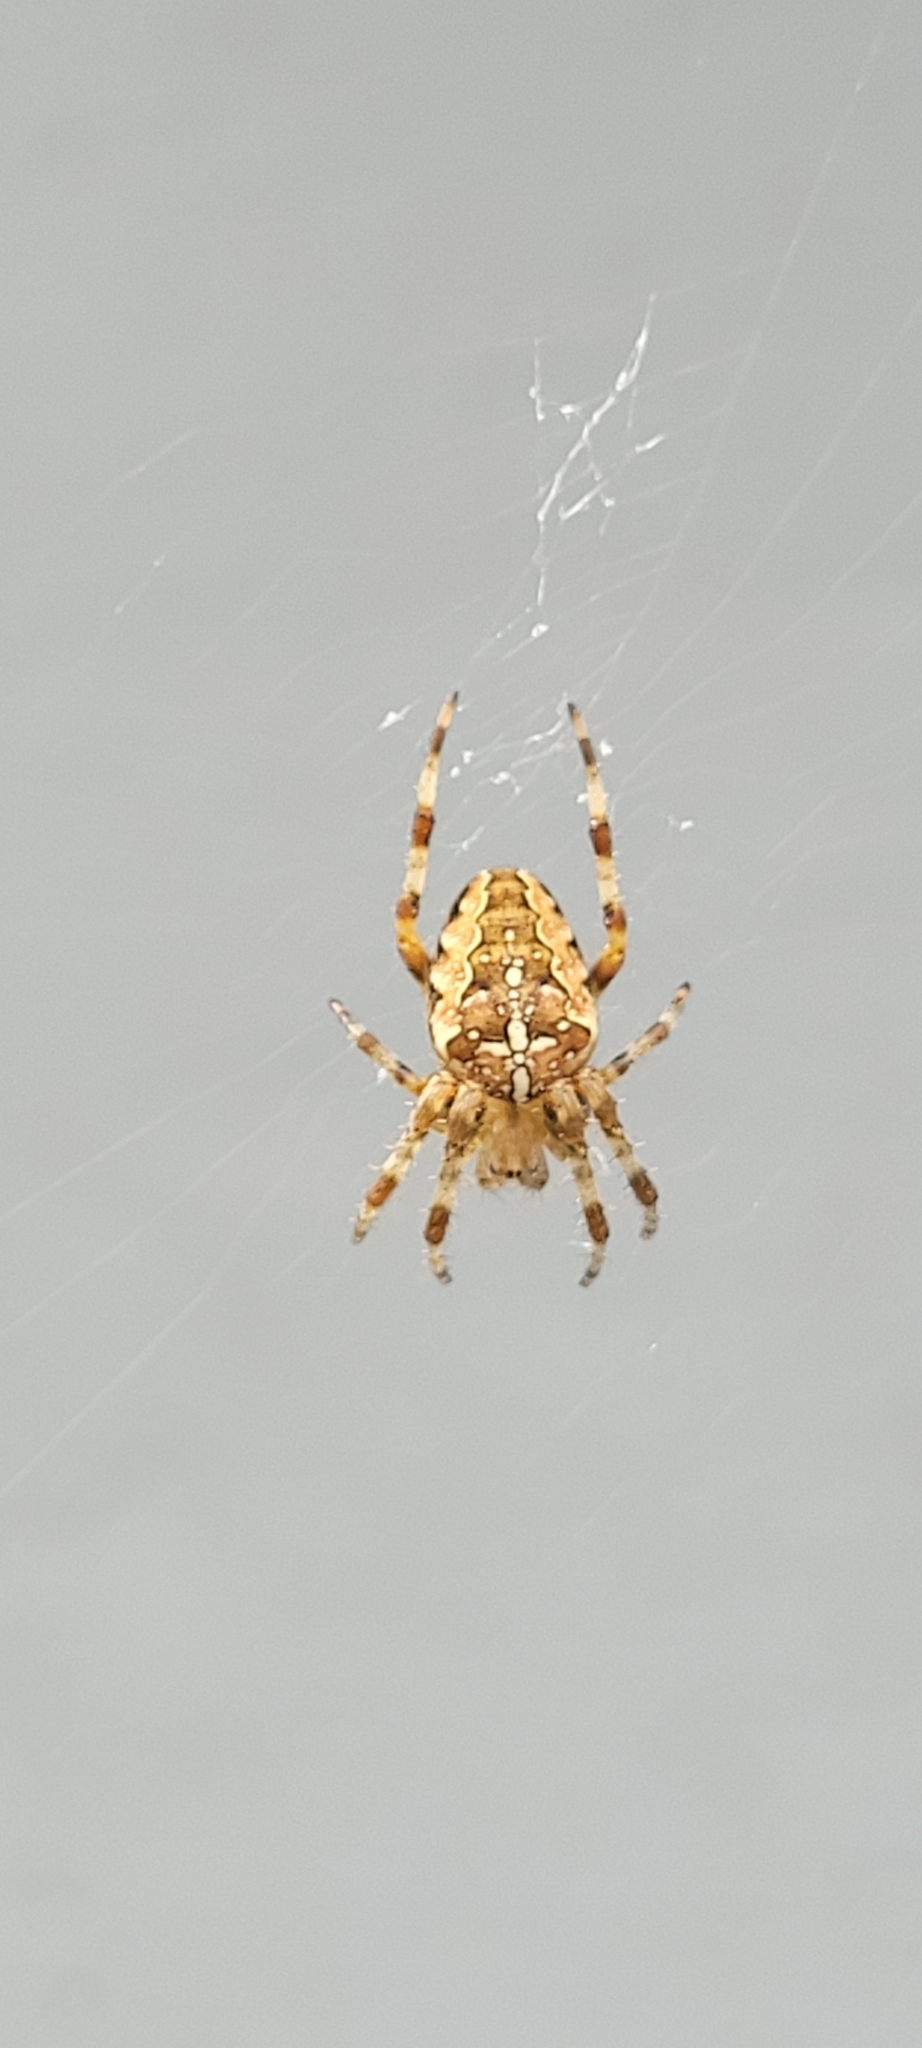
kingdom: Animalia
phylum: Arthropoda
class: Arachnida
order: Araneae
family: Araneidae
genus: Araneus
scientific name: Araneus diadematus
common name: Cross orbweaver
